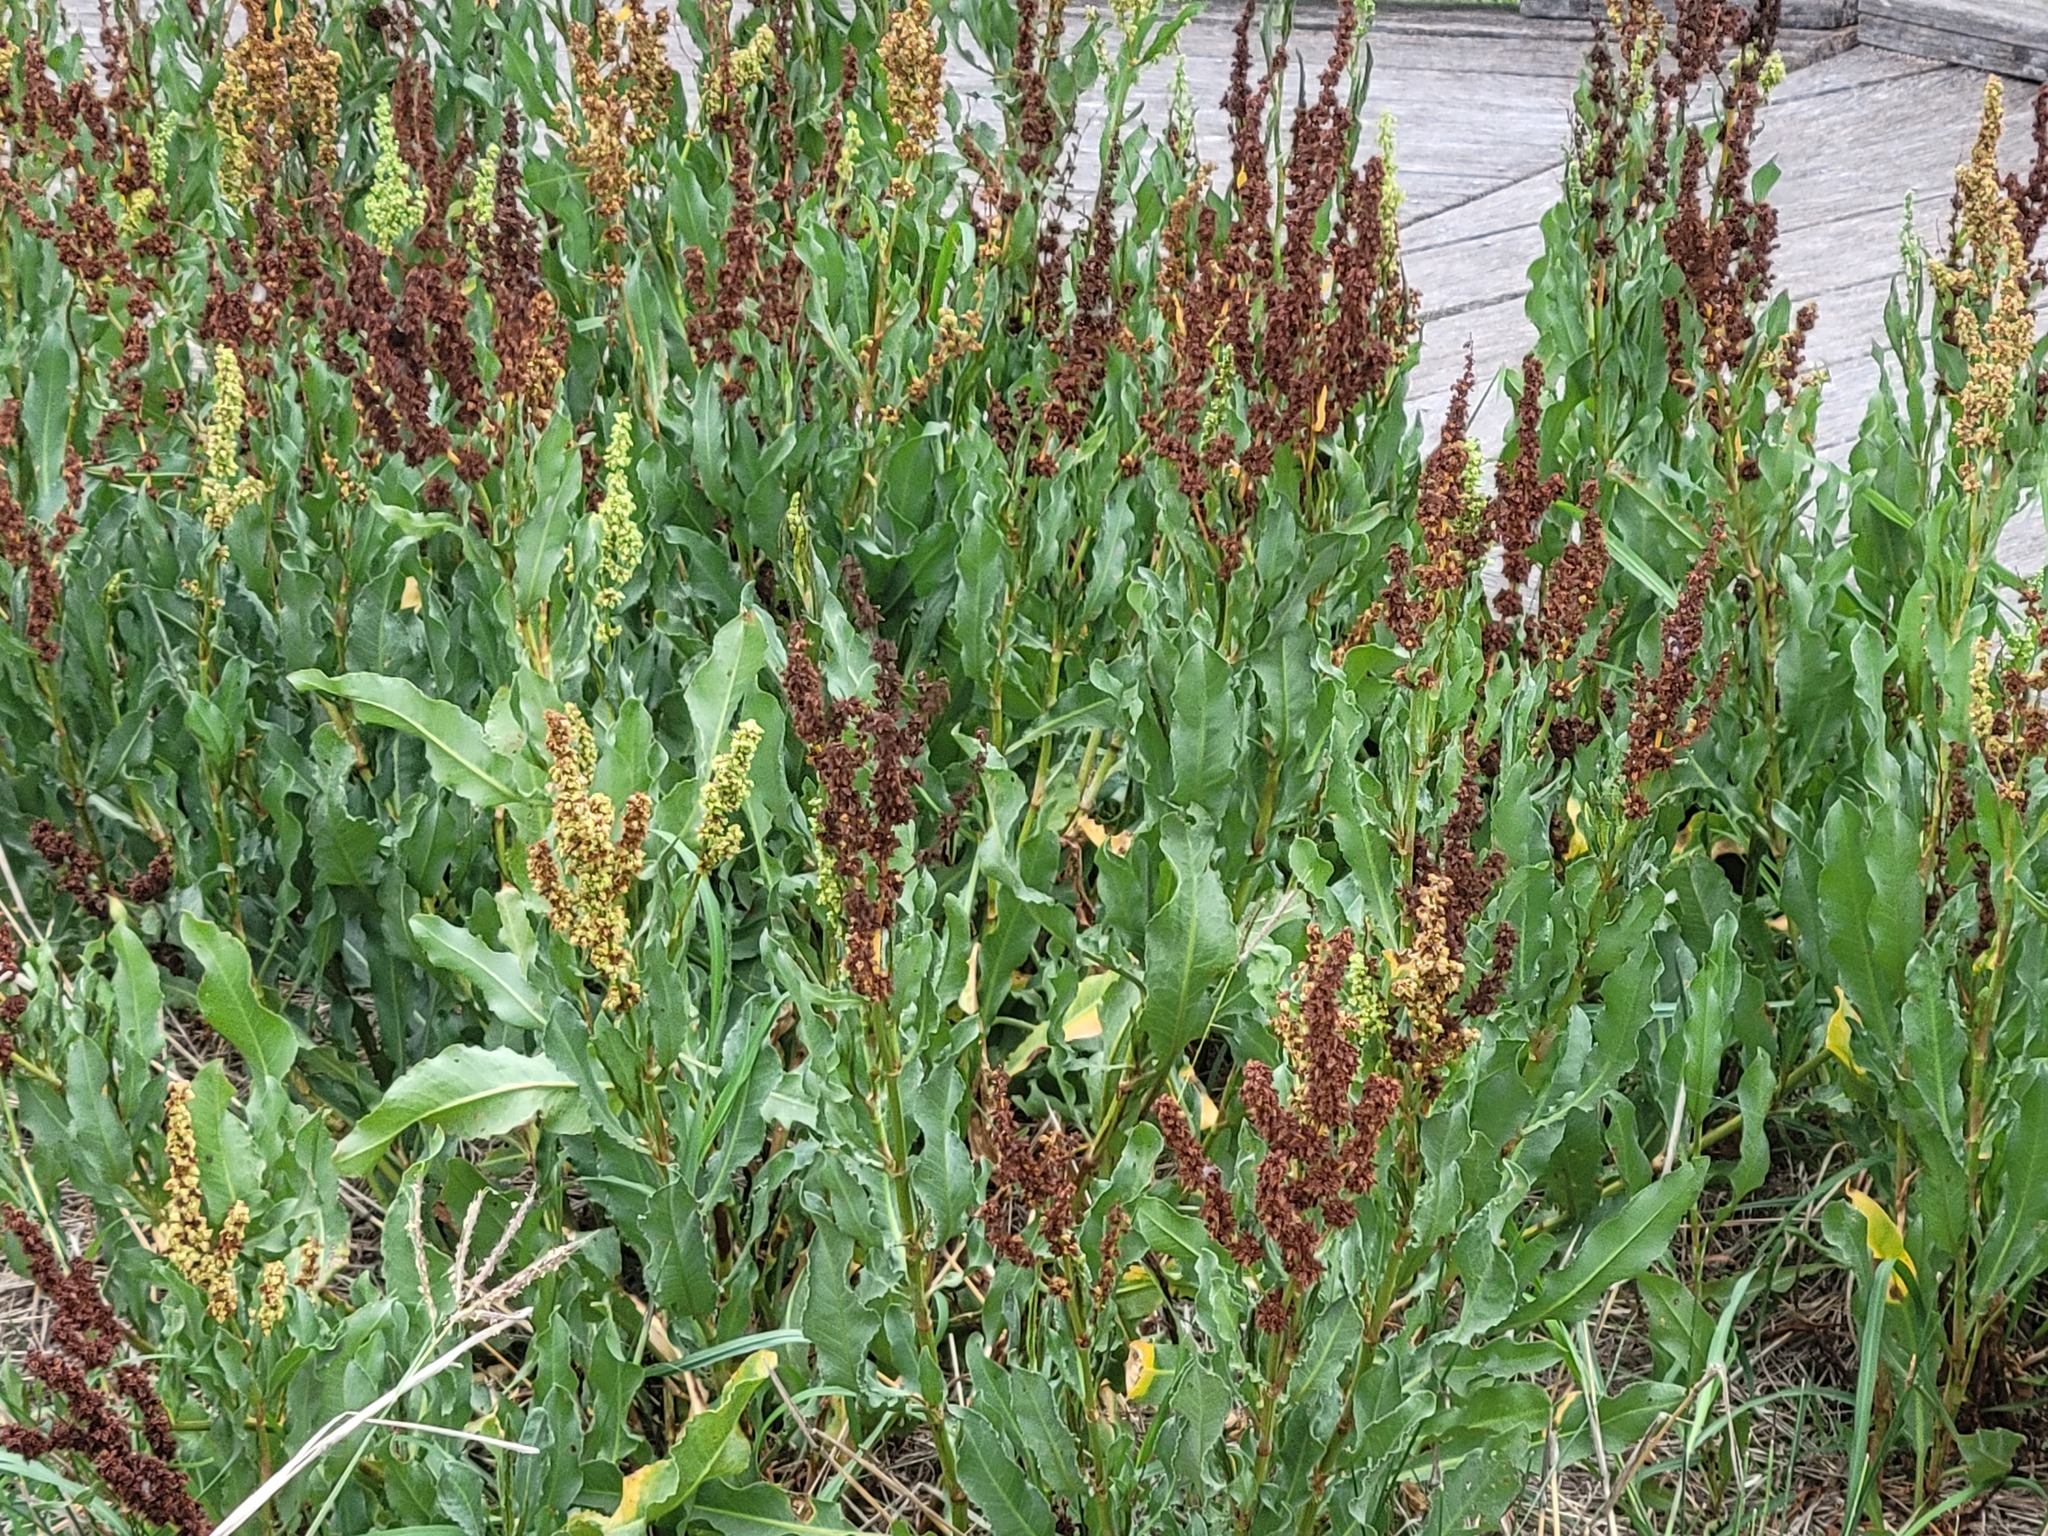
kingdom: Plantae
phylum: Tracheophyta
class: Magnoliopsida
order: Caryophyllales
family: Polygonaceae
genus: Rumex
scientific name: Rumex crispus
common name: Curled dock
